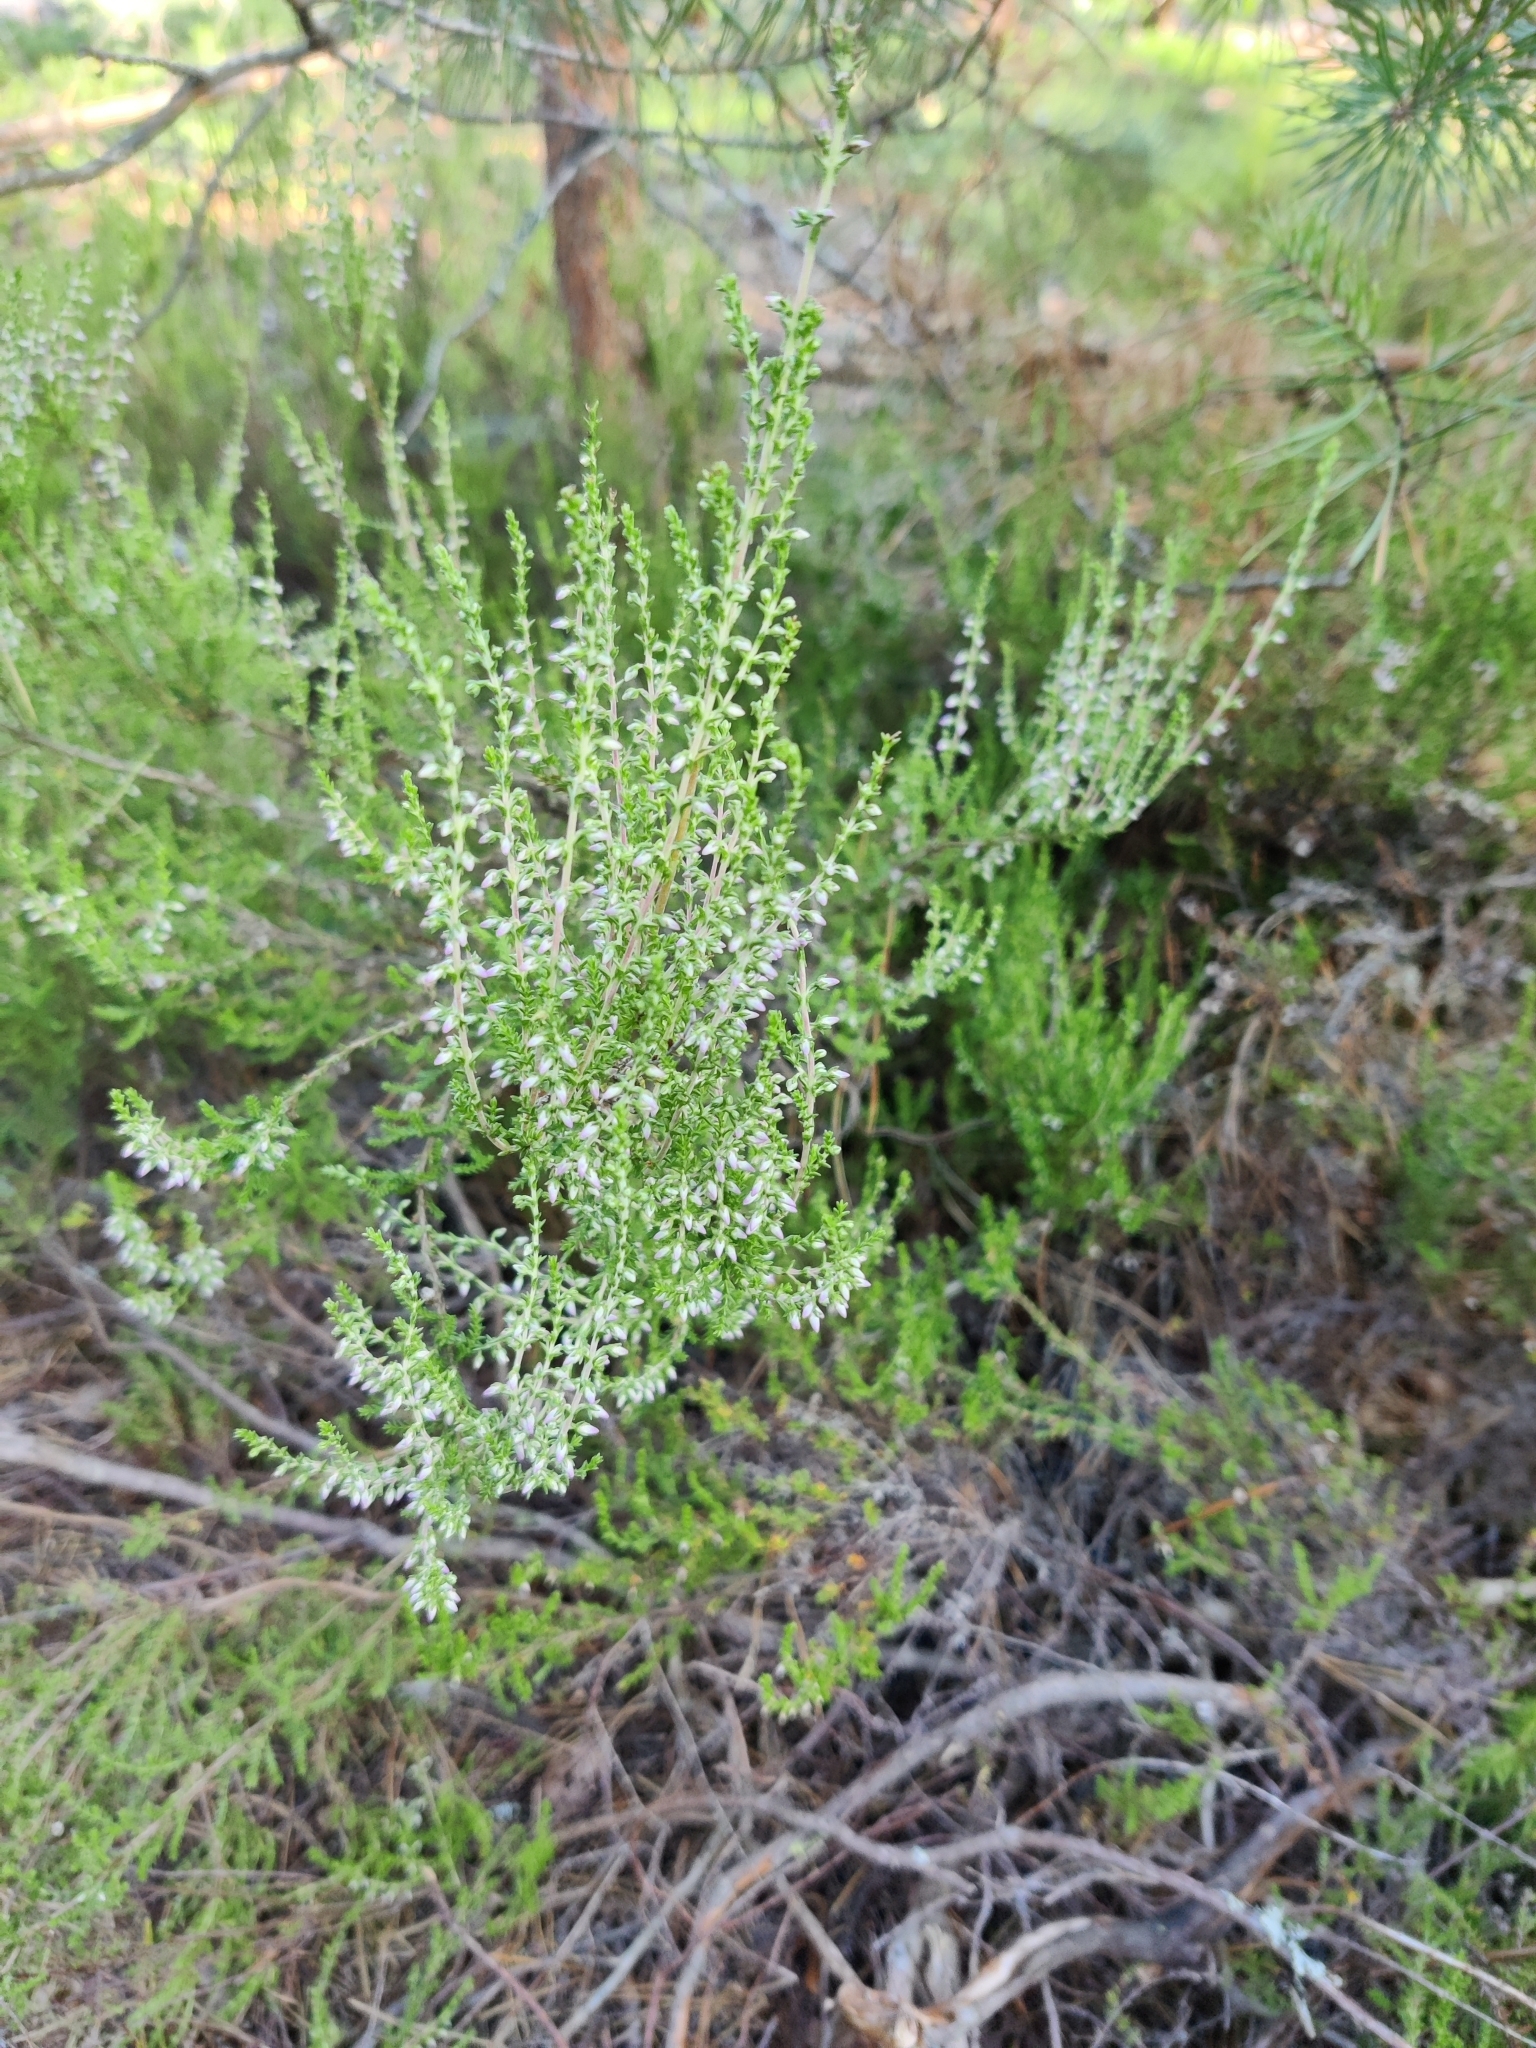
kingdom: Plantae
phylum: Tracheophyta
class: Magnoliopsida
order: Ericales
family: Ericaceae
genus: Calluna
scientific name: Calluna vulgaris
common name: Heather
